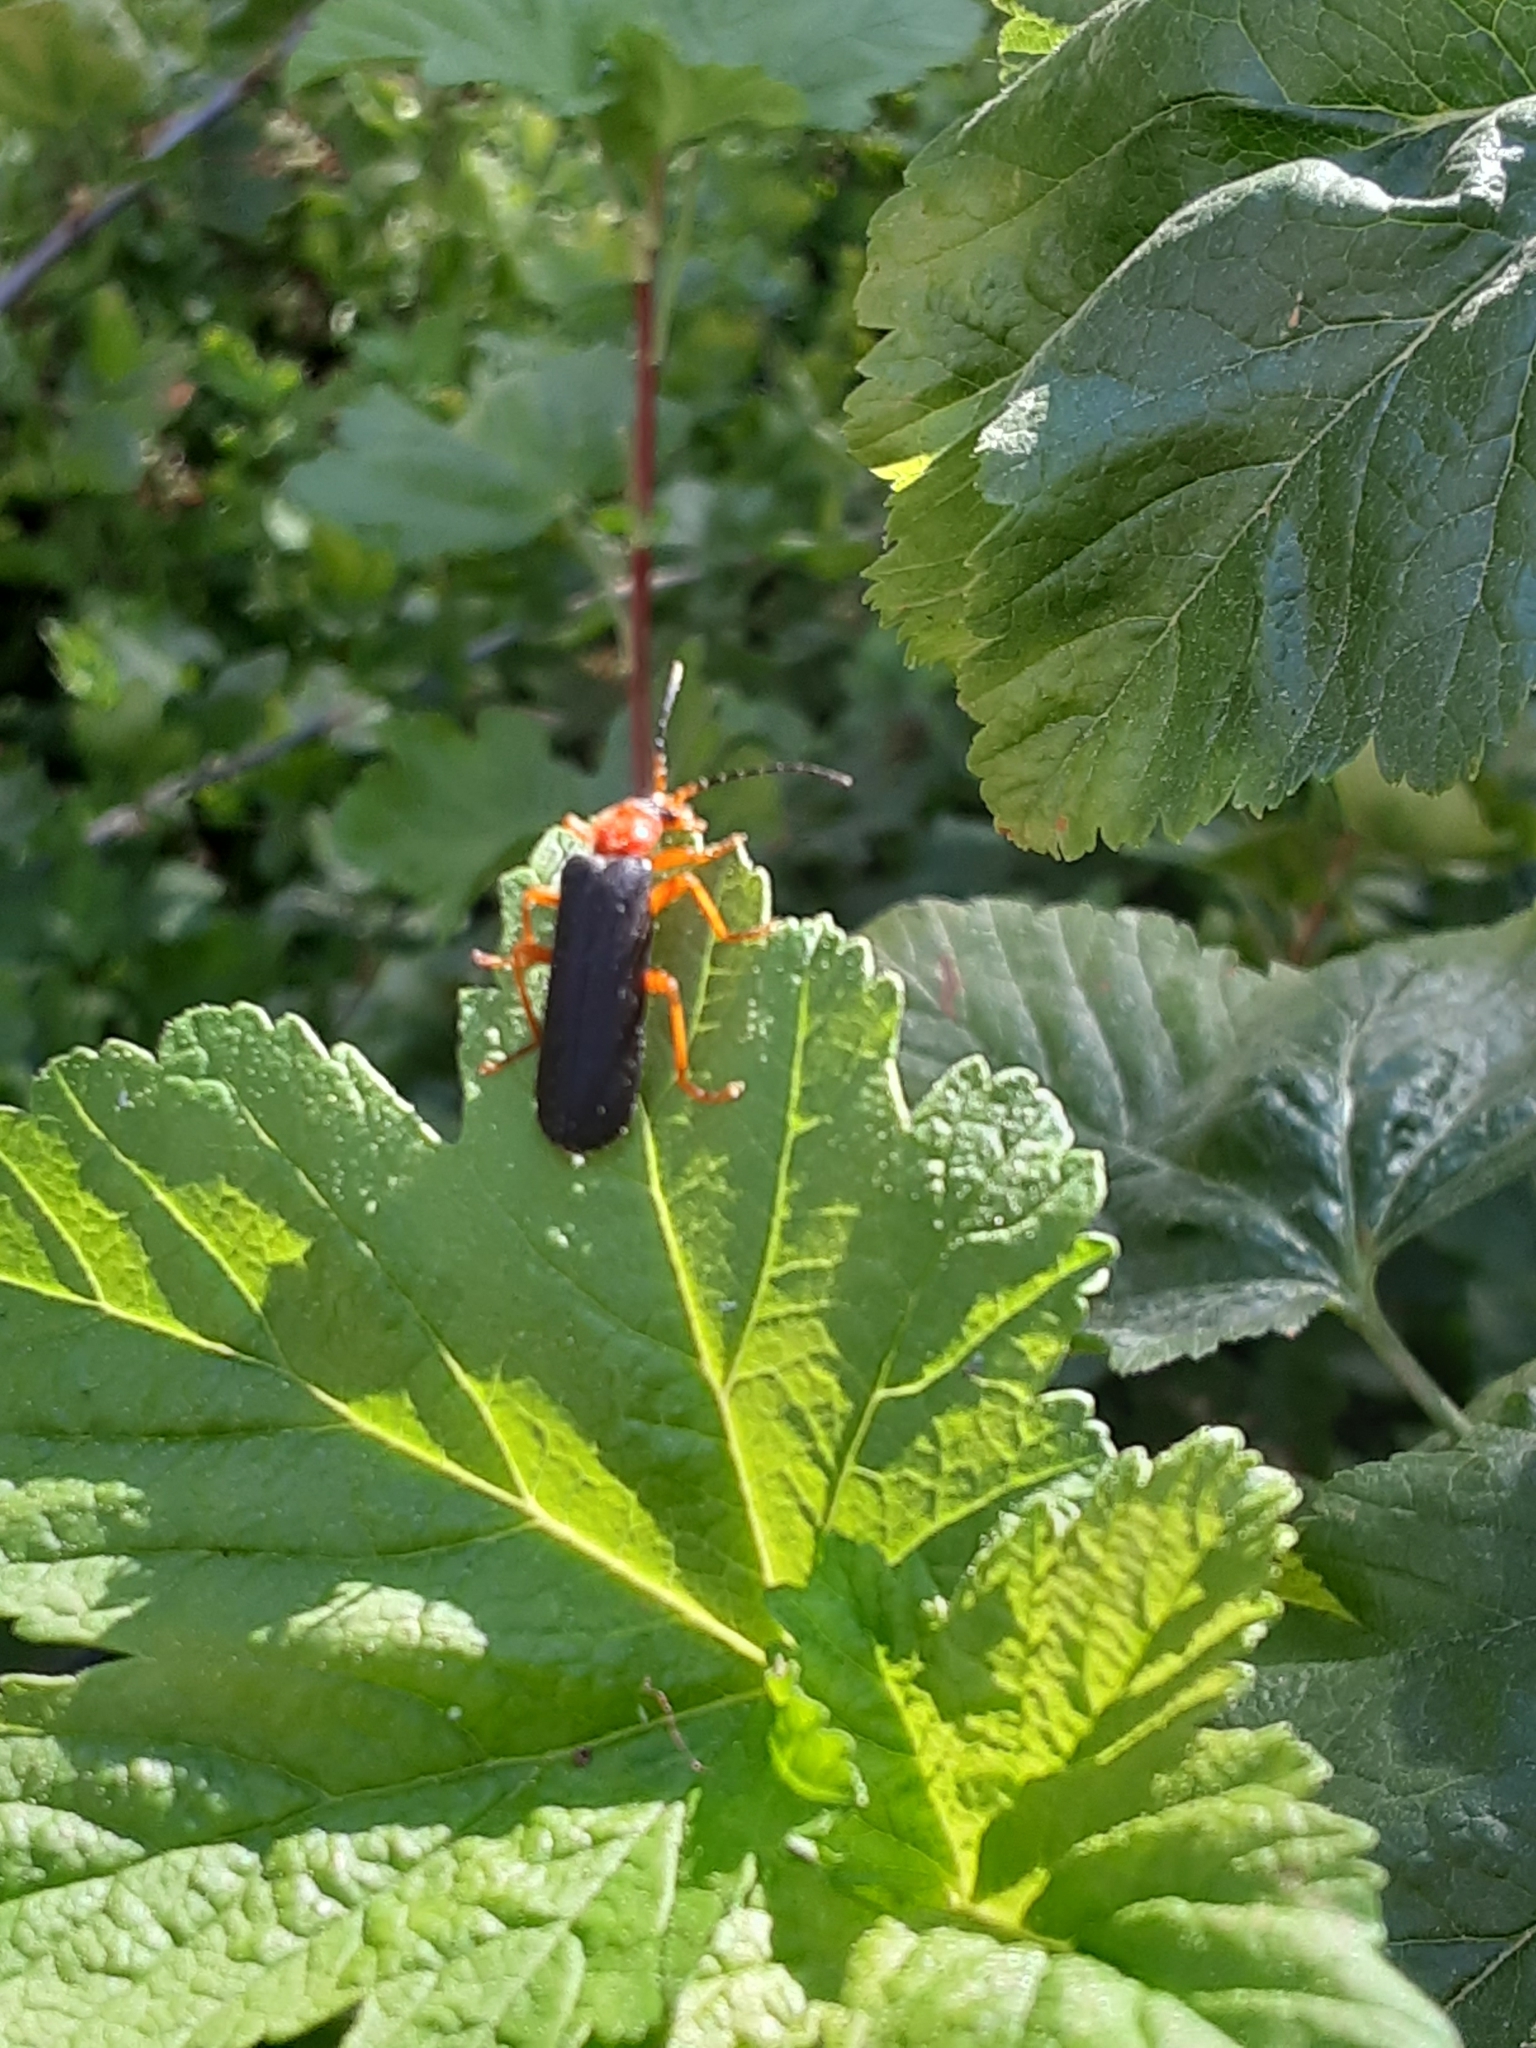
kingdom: Animalia
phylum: Arthropoda
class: Insecta
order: Coleoptera
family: Cantharidae
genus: Podabrus
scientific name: Podabrus youngi
